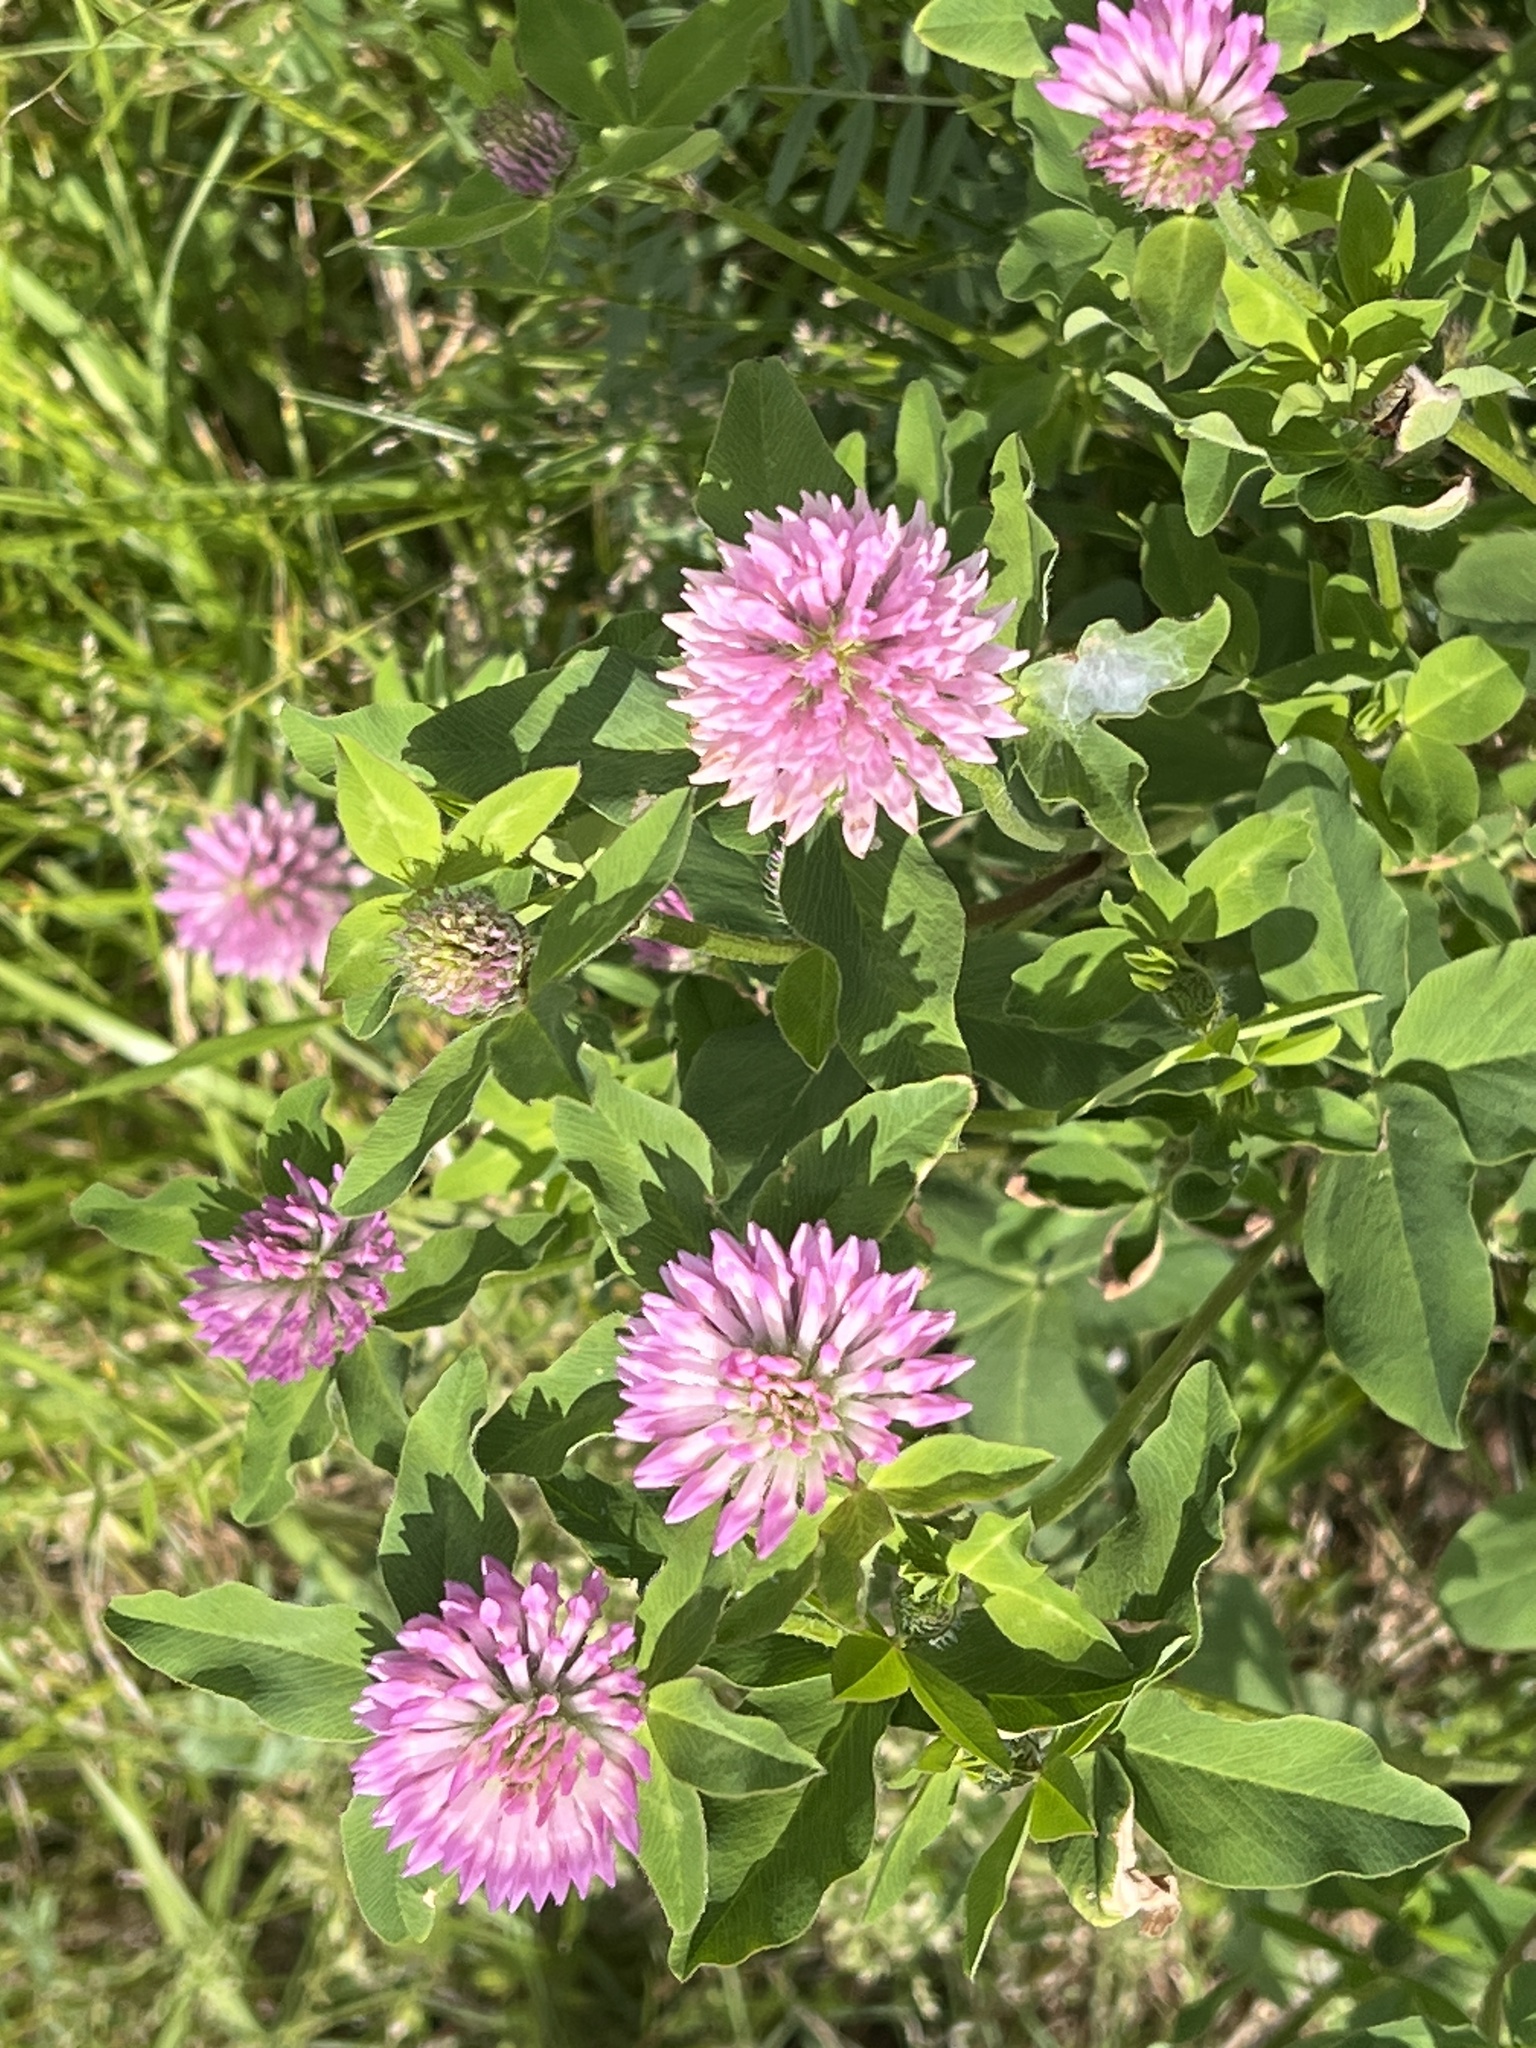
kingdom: Plantae
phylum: Tracheophyta
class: Magnoliopsida
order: Fabales
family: Fabaceae
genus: Trifolium
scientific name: Trifolium pratense
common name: Red clover
